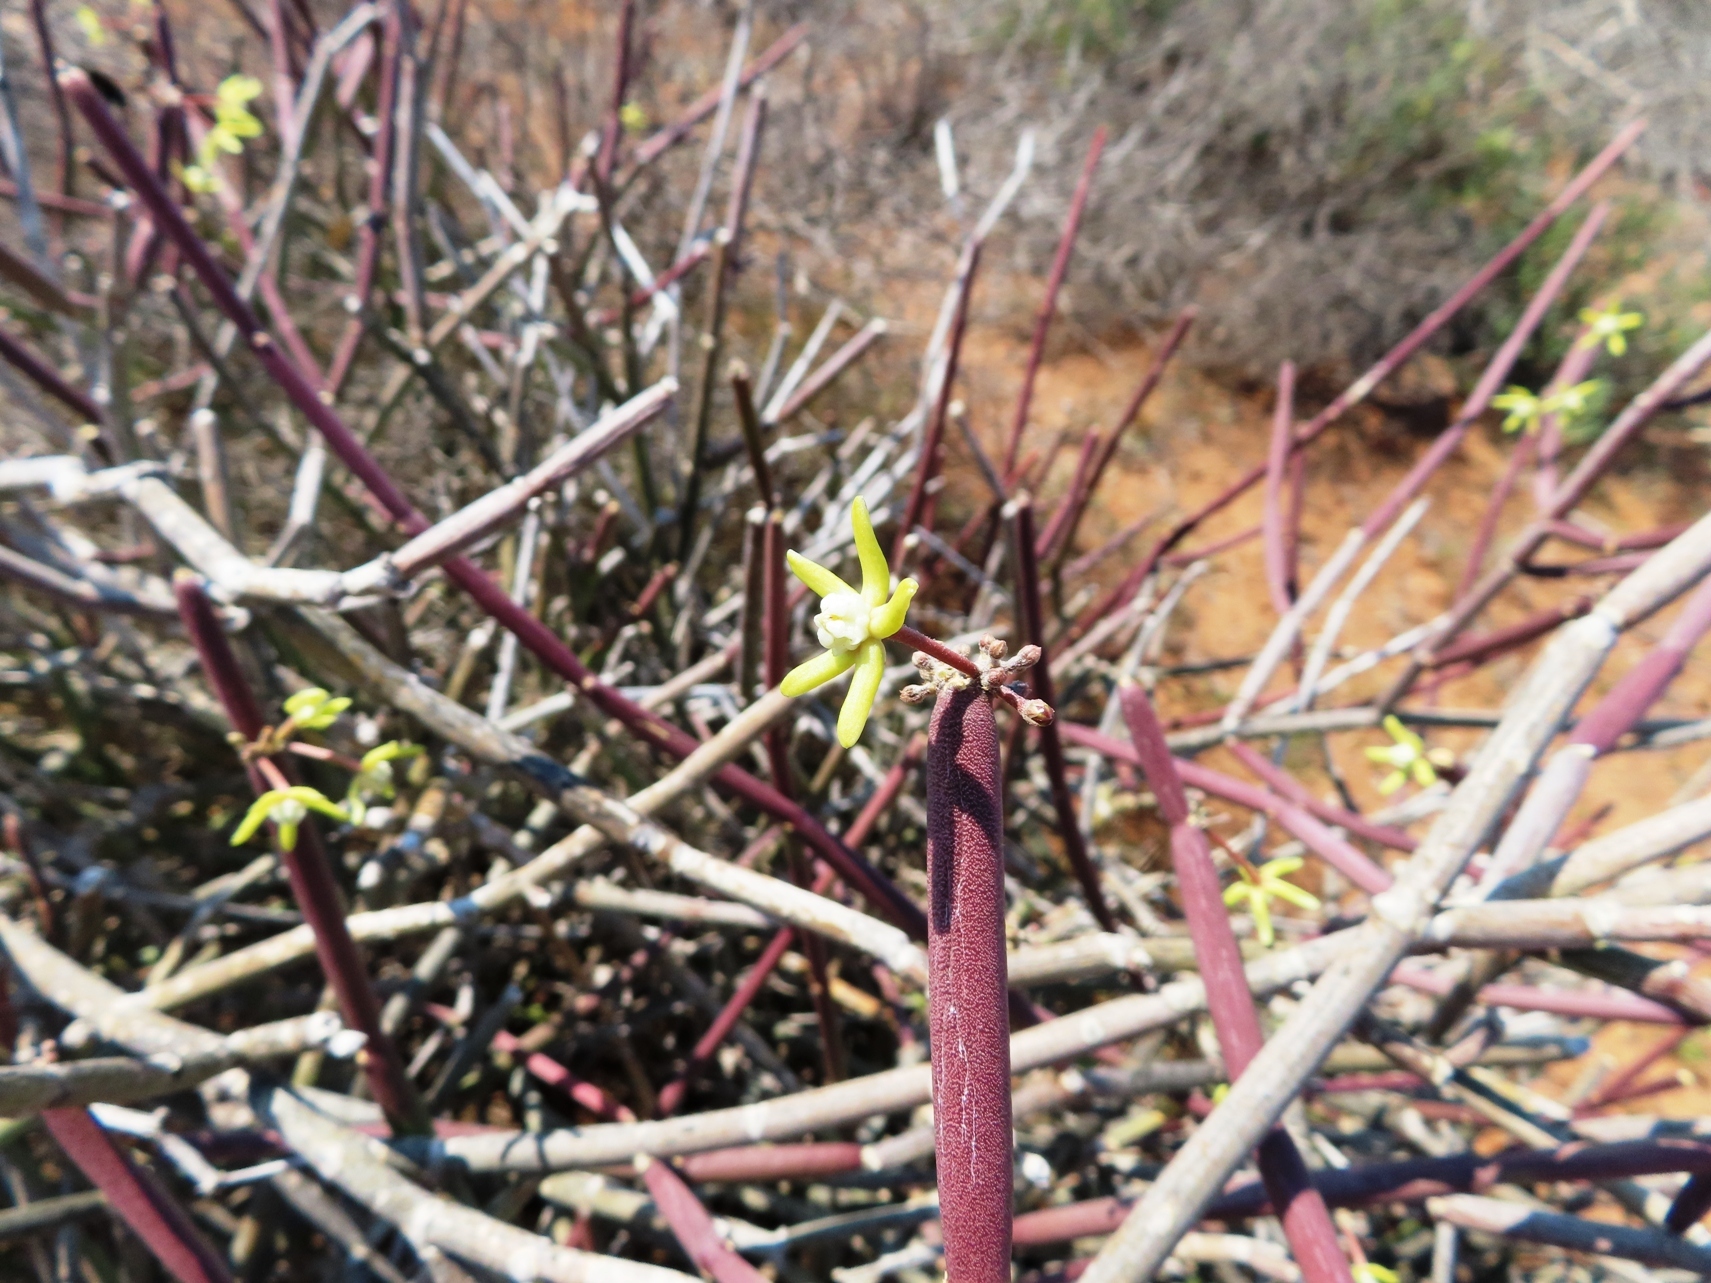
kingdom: Plantae
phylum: Tracheophyta
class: Magnoliopsida
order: Gentianales
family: Apocynaceae
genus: Cynanchum
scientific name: Cynanchum viminale
